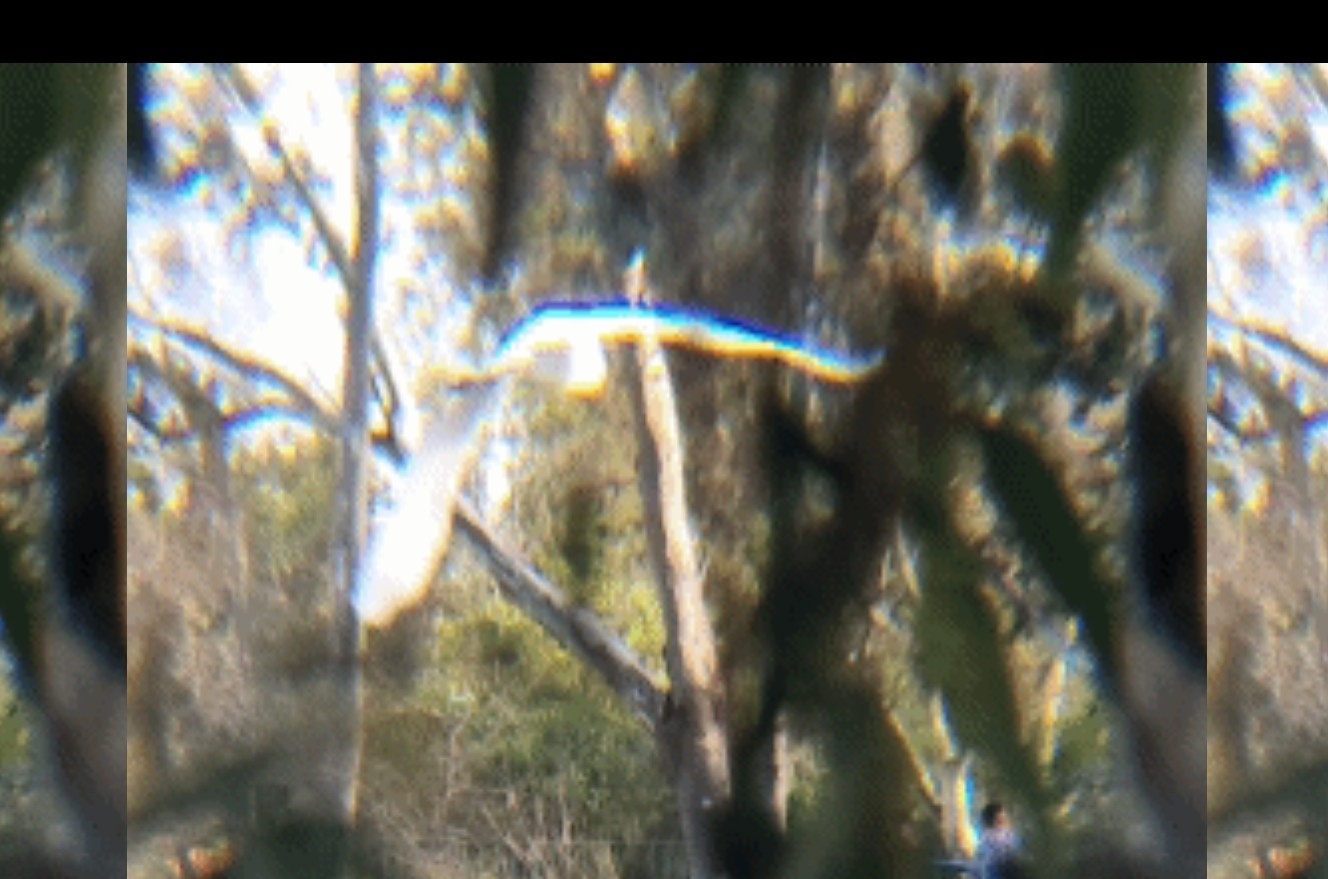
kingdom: Animalia
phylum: Chordata
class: Aves
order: Pelecaniformes
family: Ardeidae
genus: Ardea
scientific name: Ardea alba
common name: Great egret
